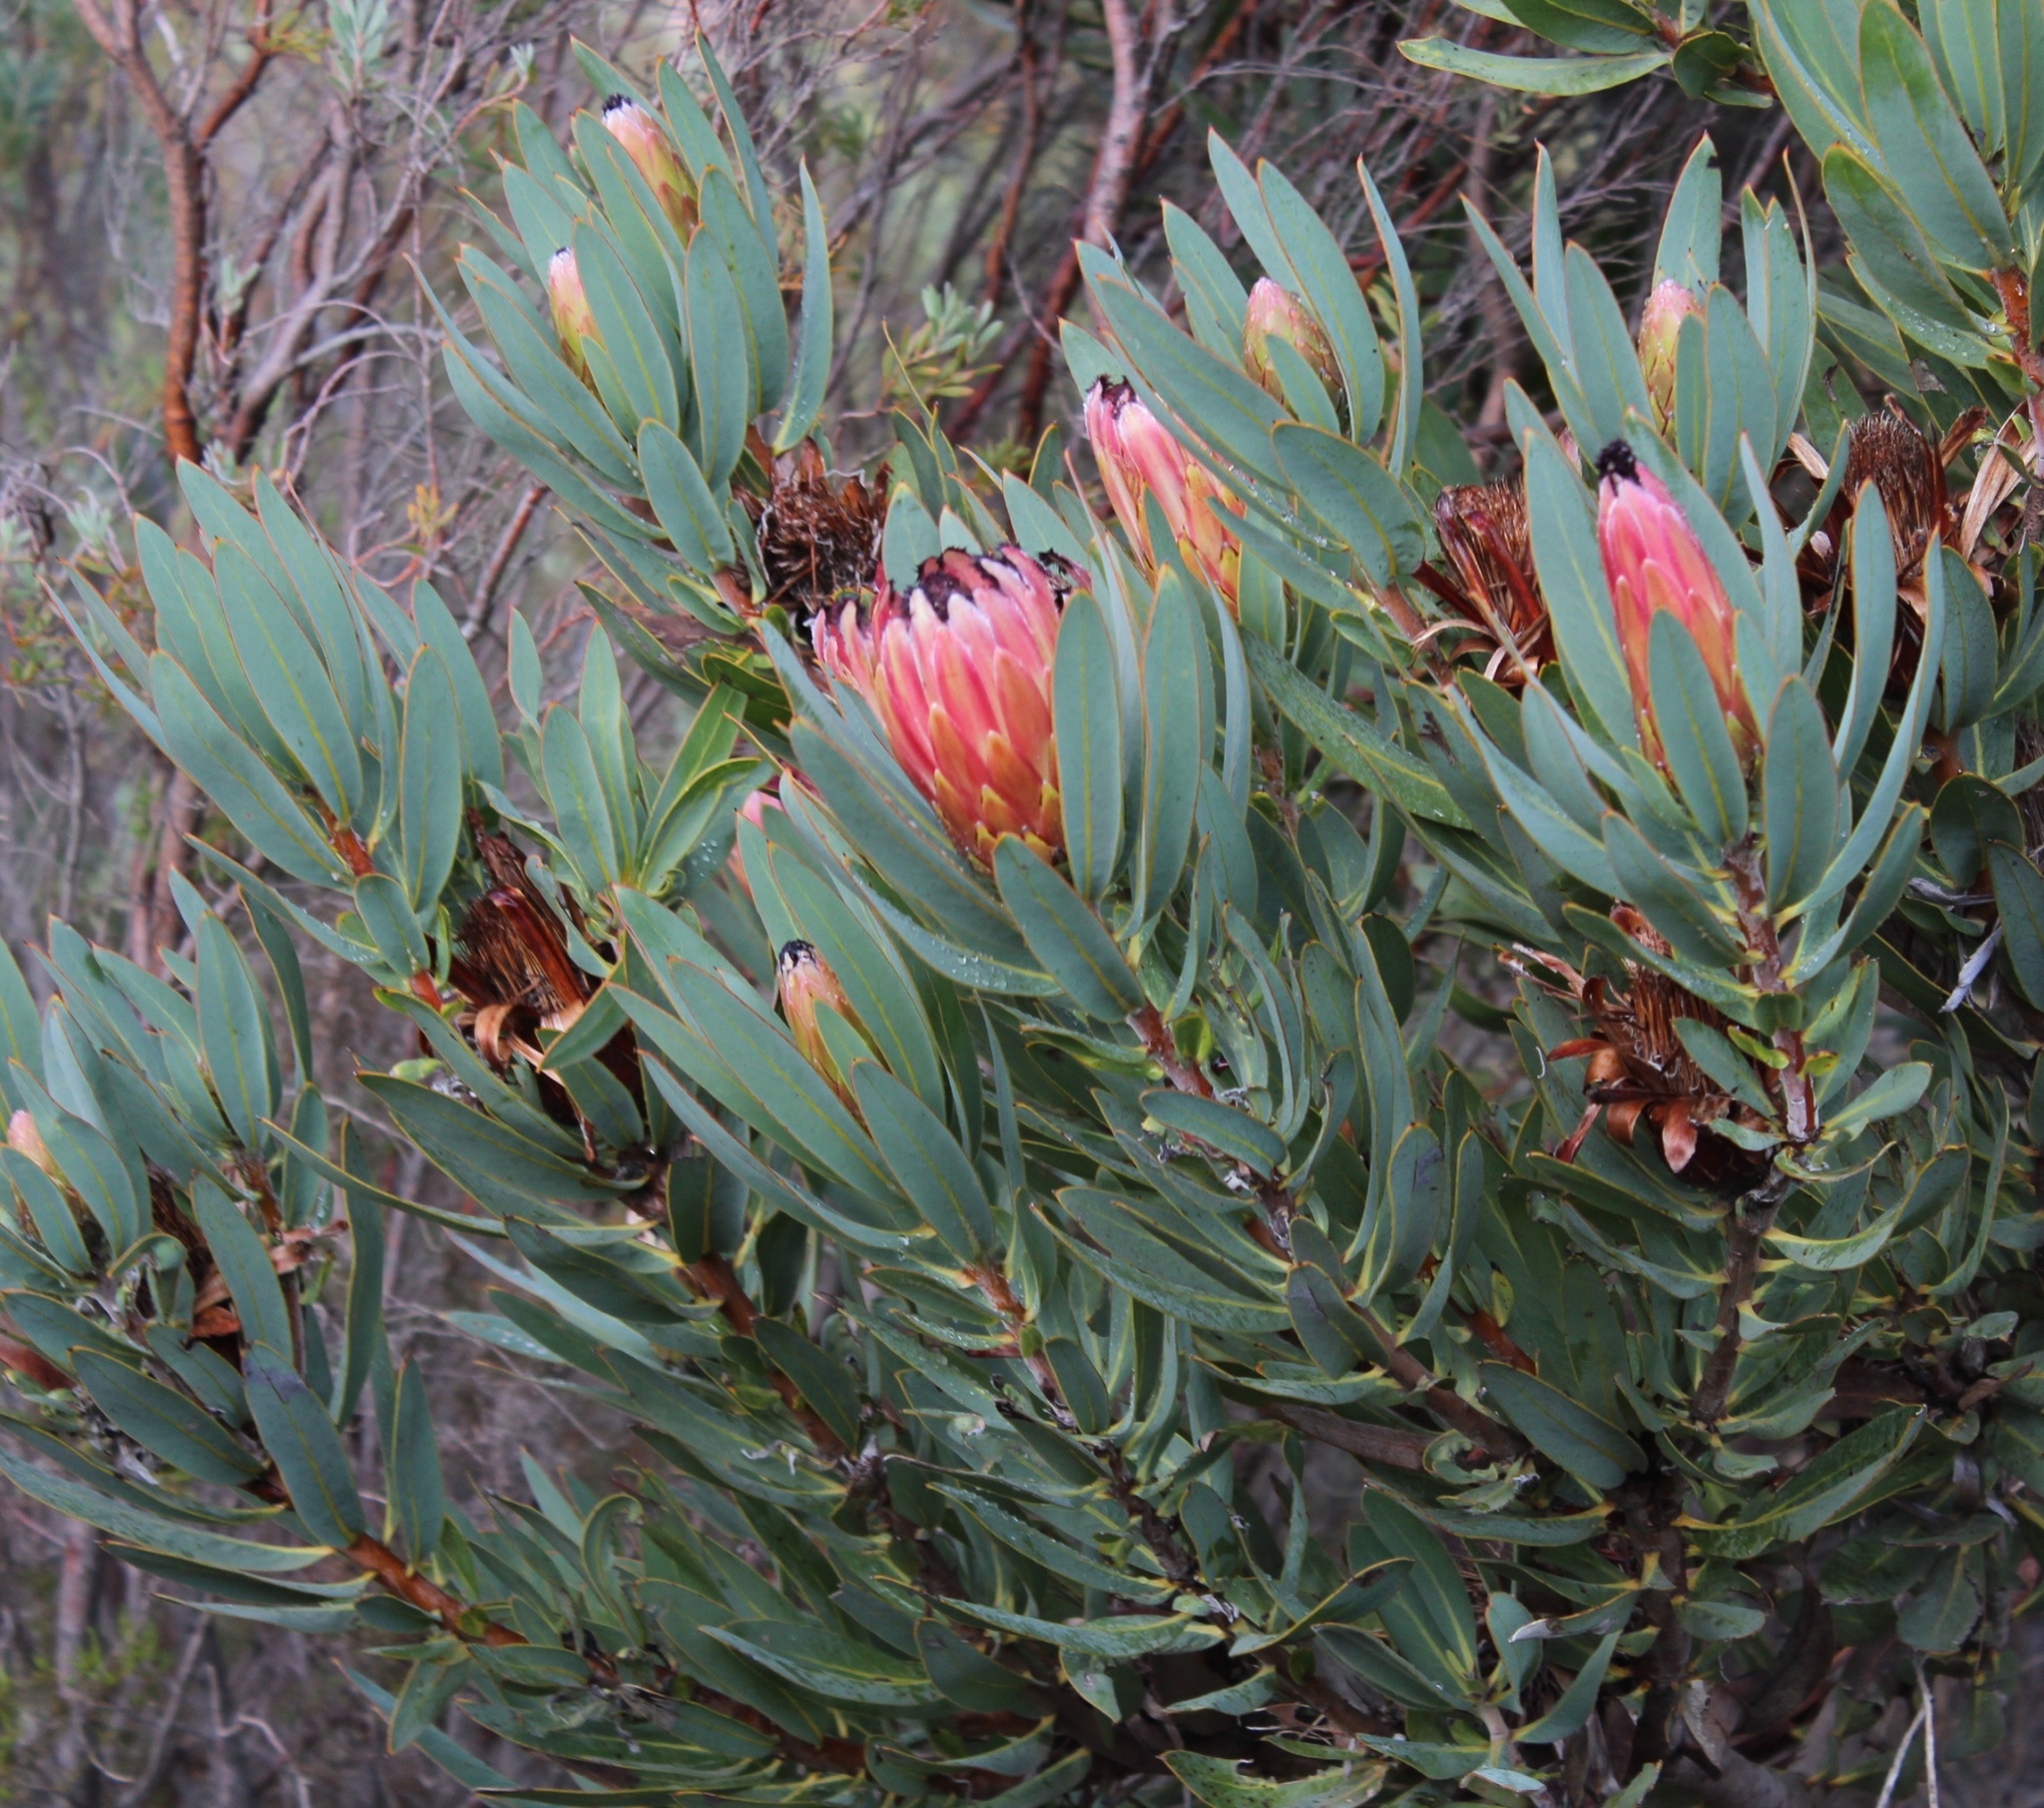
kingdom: Plantae
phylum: Tracheophyta
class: Magnoliopsida
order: Proteales
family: Proteaceae
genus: Protea
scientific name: Protea
